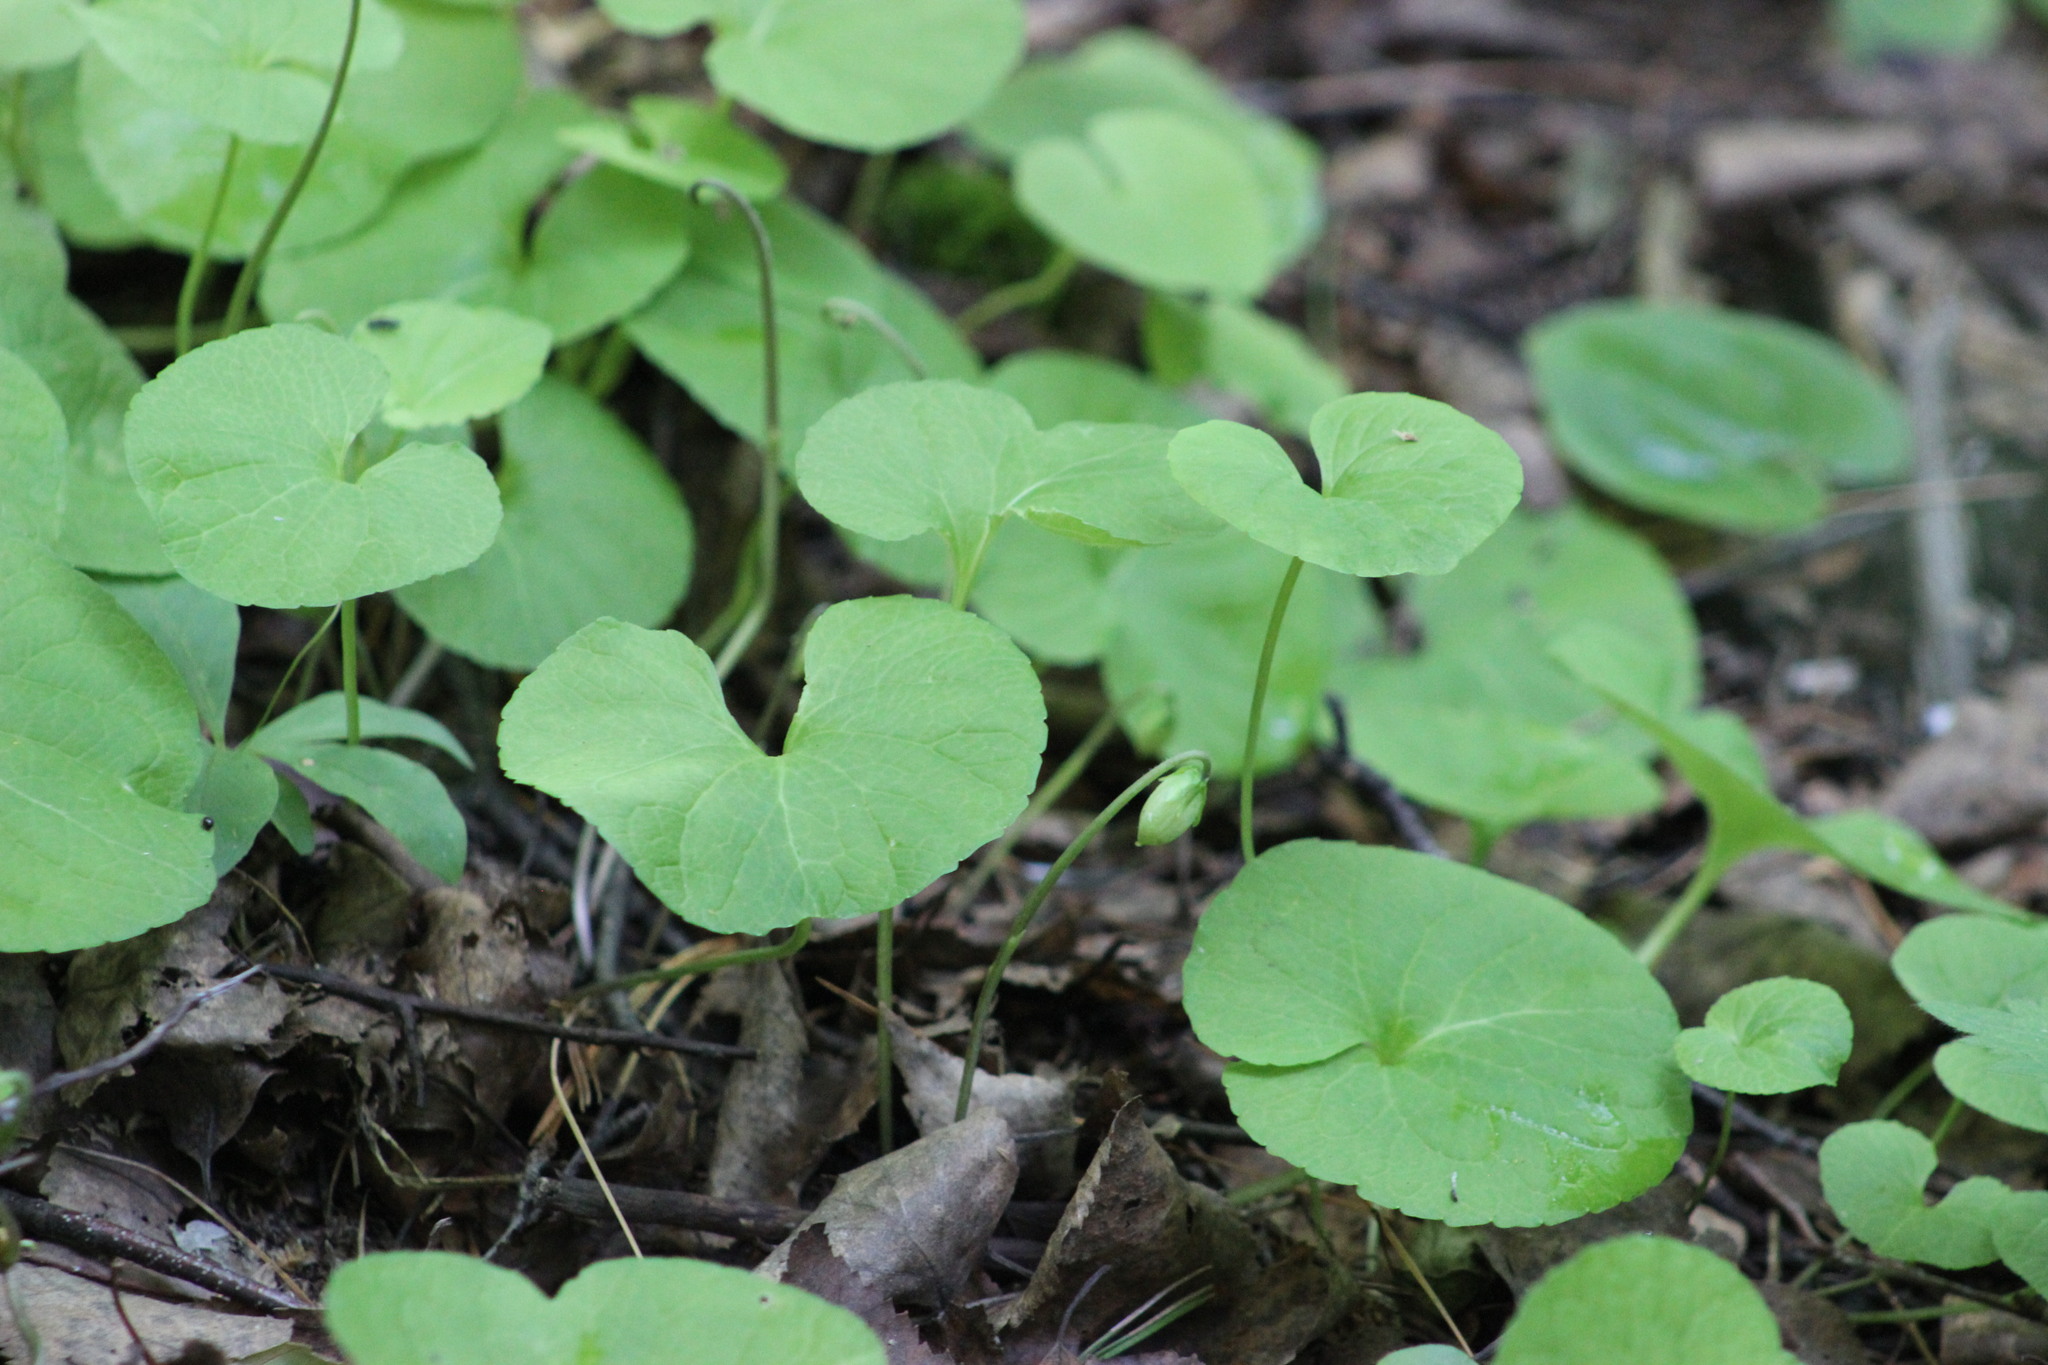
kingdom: Plantae
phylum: Tracheophyta
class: Magnoliopsida
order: Malpighiales
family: Violaceae
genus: Viola
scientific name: Viola epipsila
